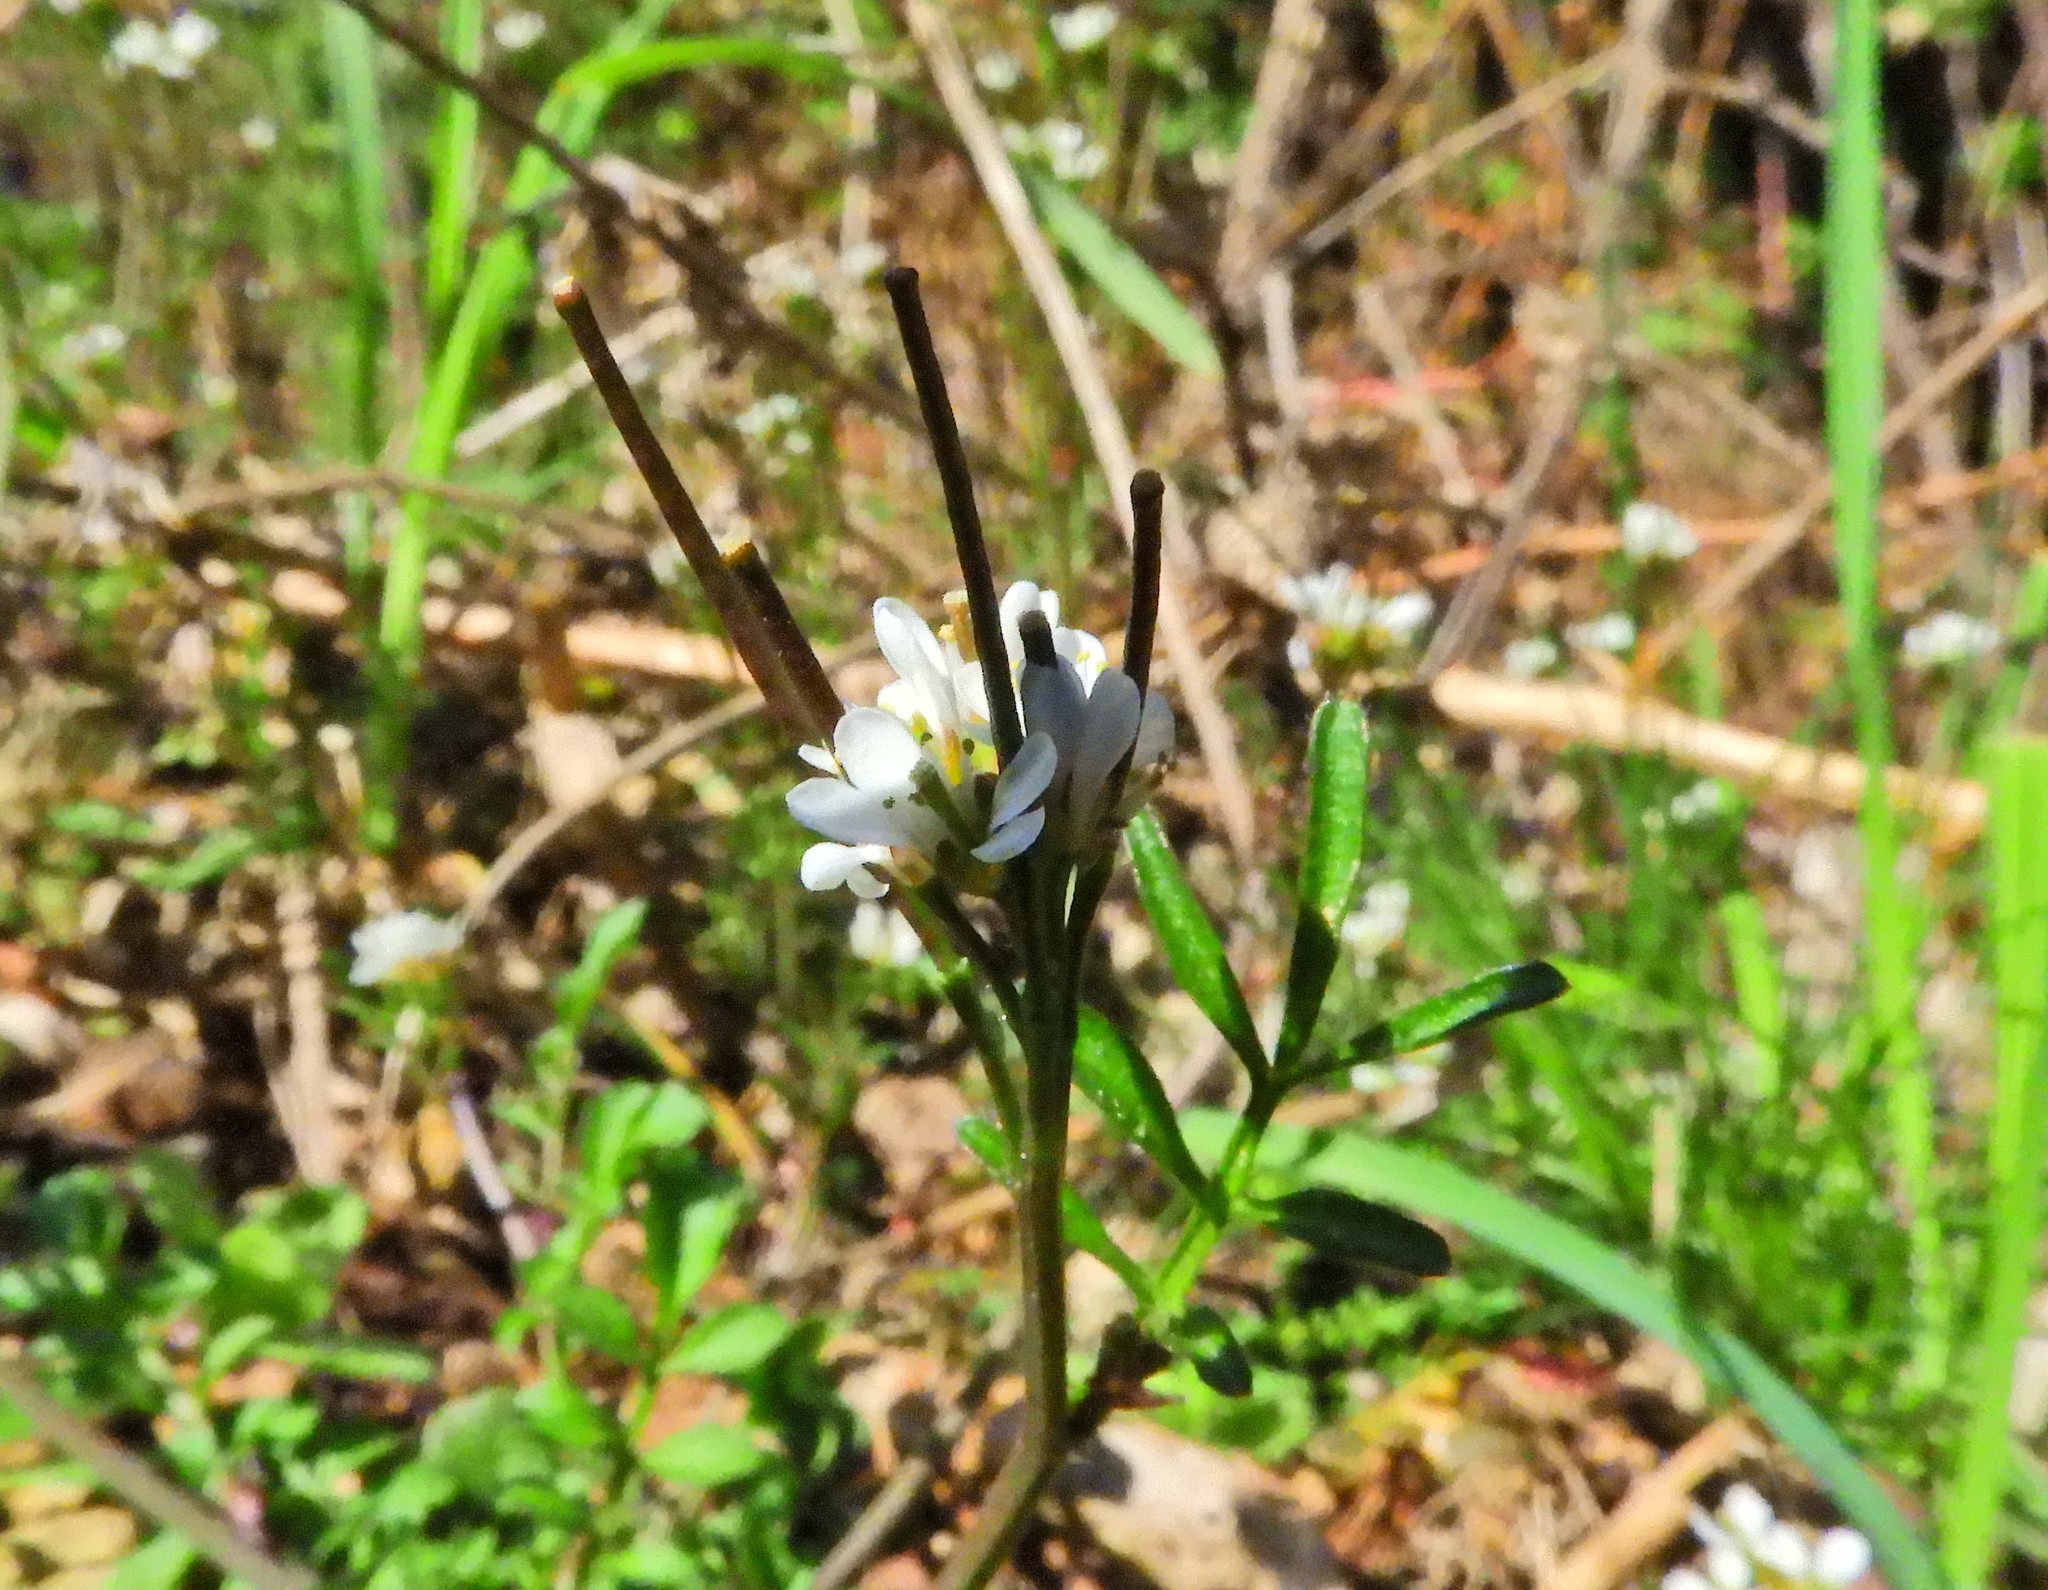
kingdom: Plantae
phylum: Tracheophyta
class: Magnoliopsida
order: Brassicales
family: Brassicaceae
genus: Cardamine
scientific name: Cardamine hirsuta
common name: Hairy bittercress
